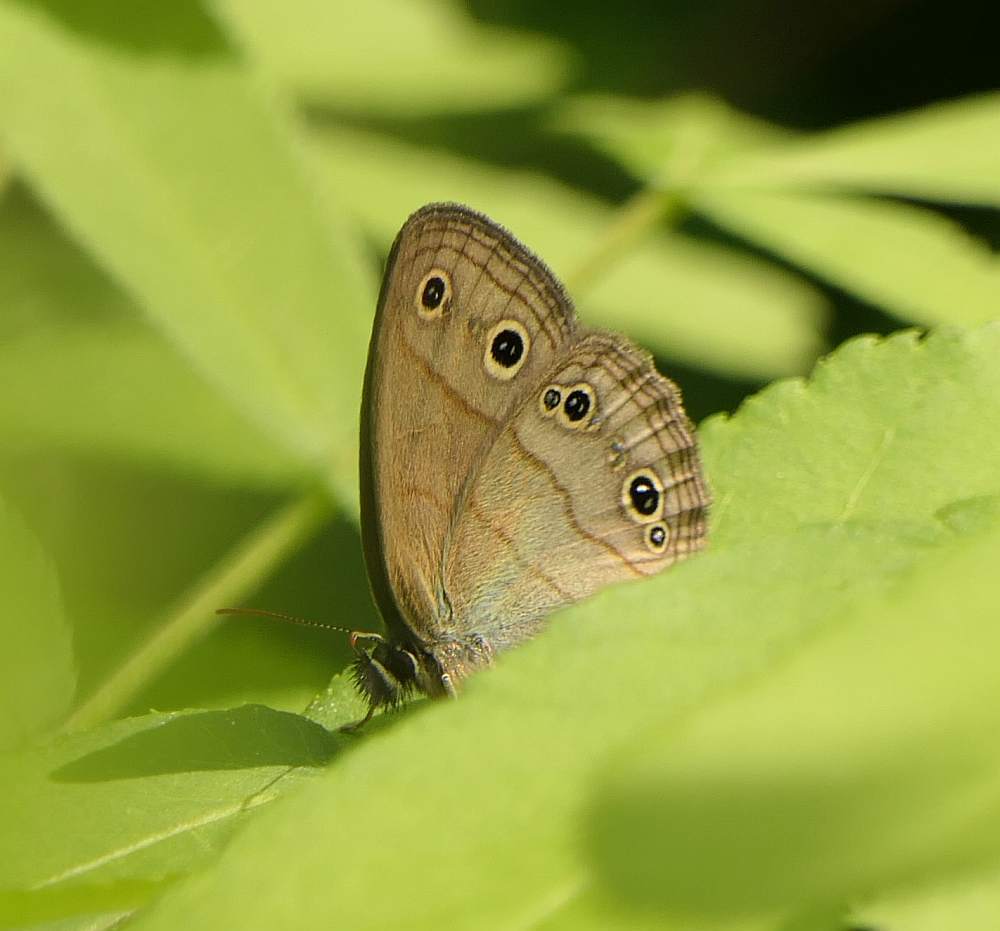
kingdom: Animalia
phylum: Arthropoda
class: Insecta
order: Lepidoptera
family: Nymphalidae
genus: Euptychia
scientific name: Euptychia cymela
